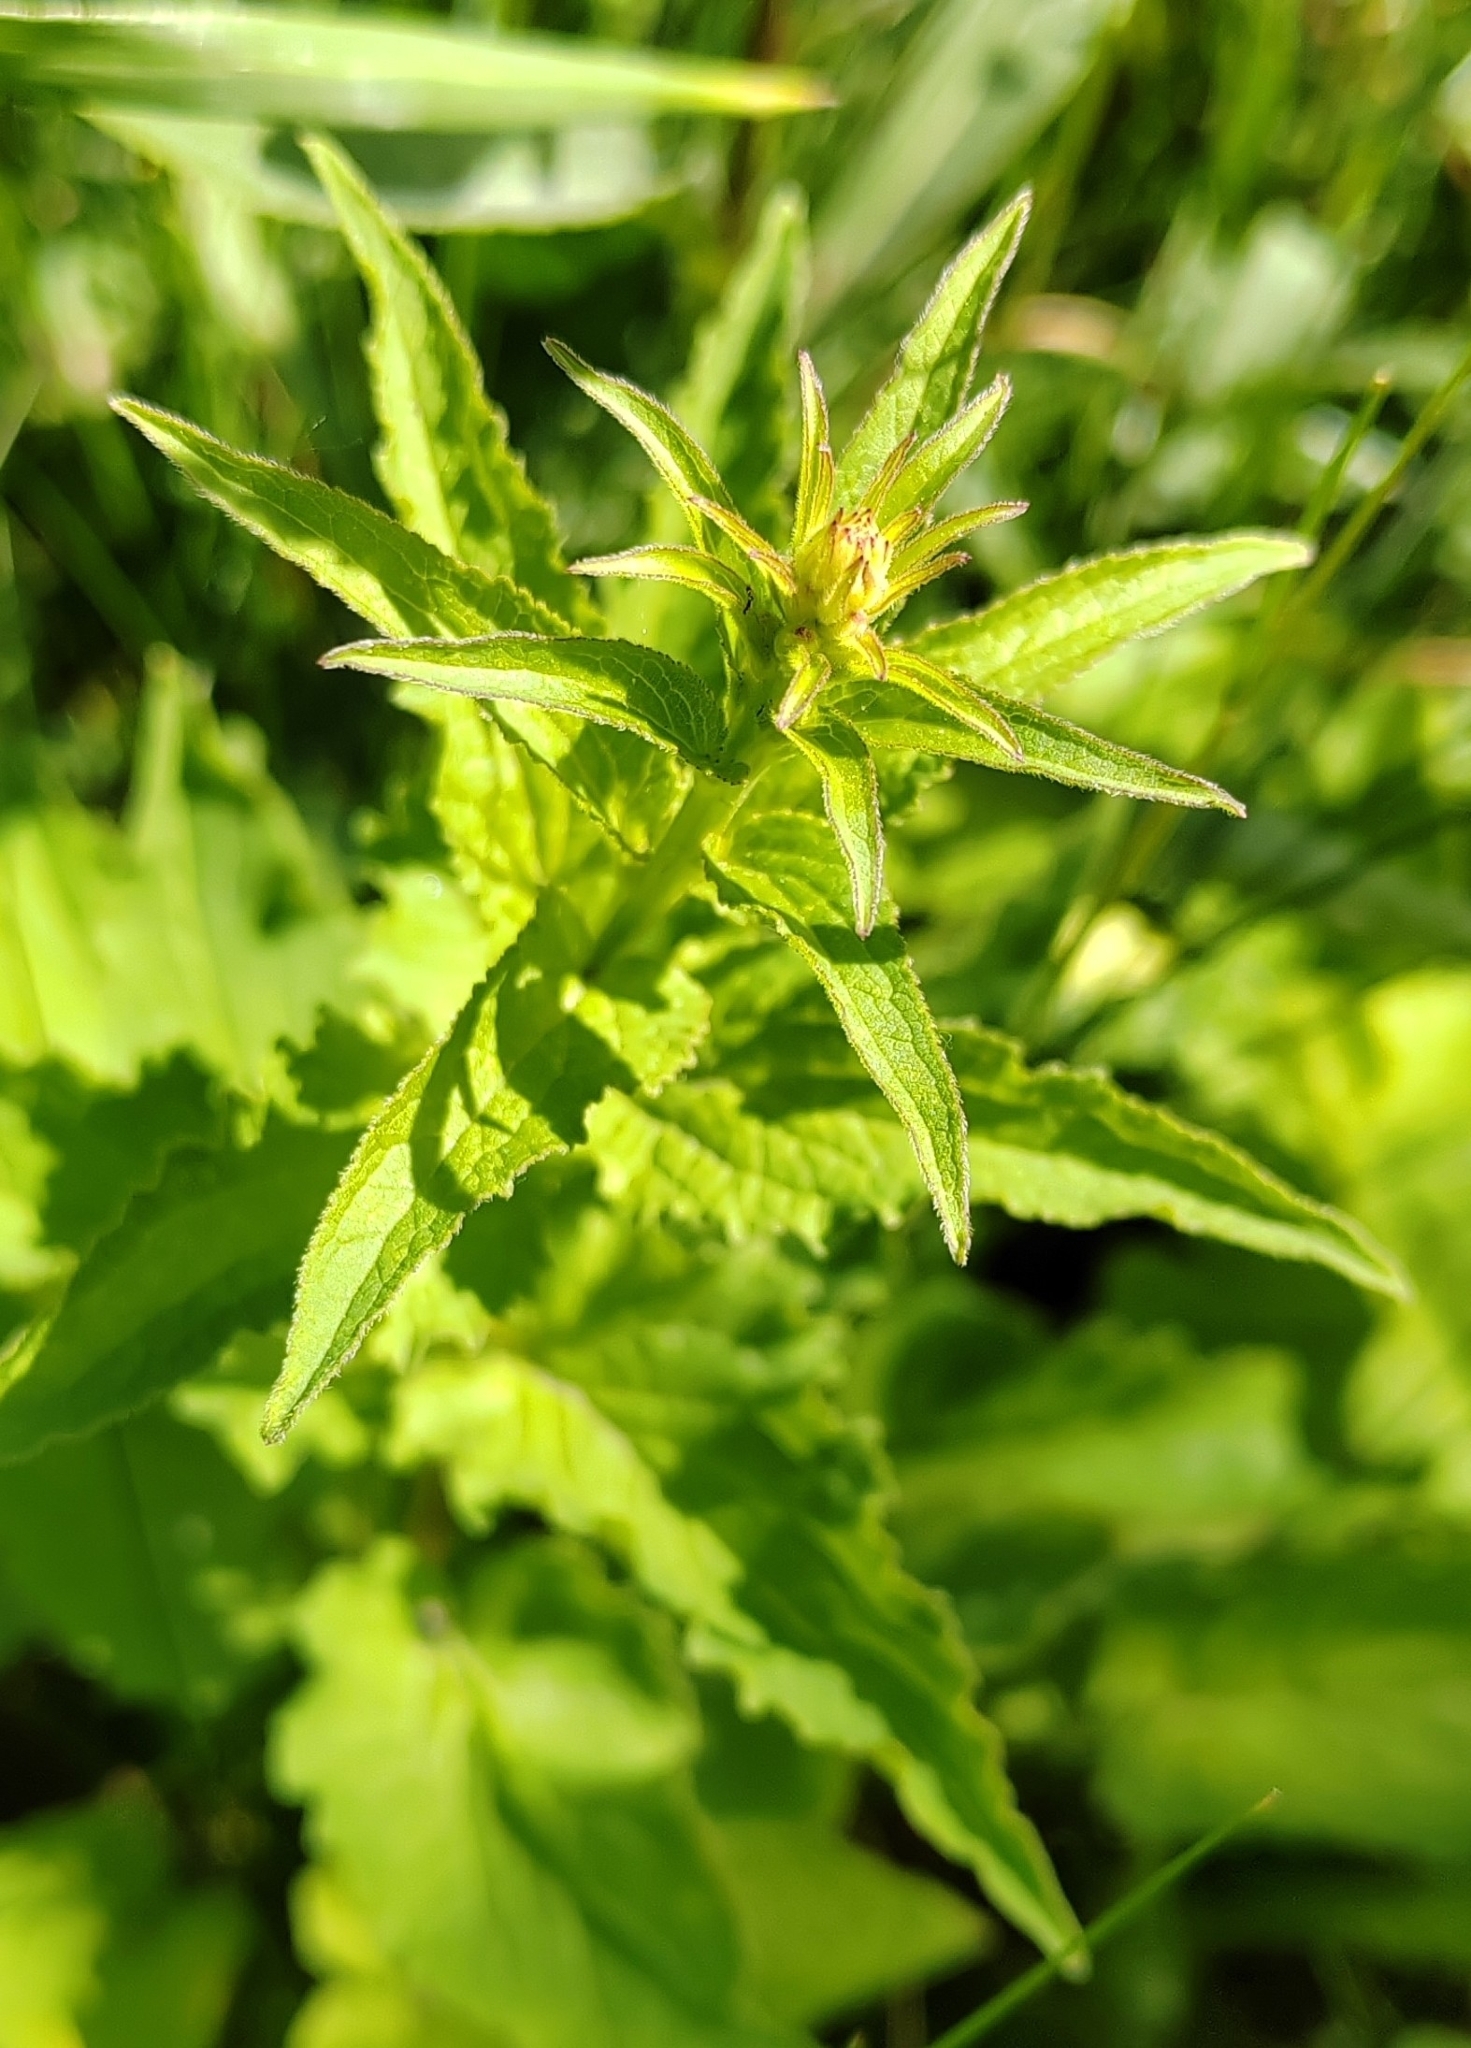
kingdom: Plantae
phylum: Tracheophyta
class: Magnoliopsida
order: Asterales
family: Campanulaceae
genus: Campanula
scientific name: Campanula rapunculoides
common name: Creeping bellflower
